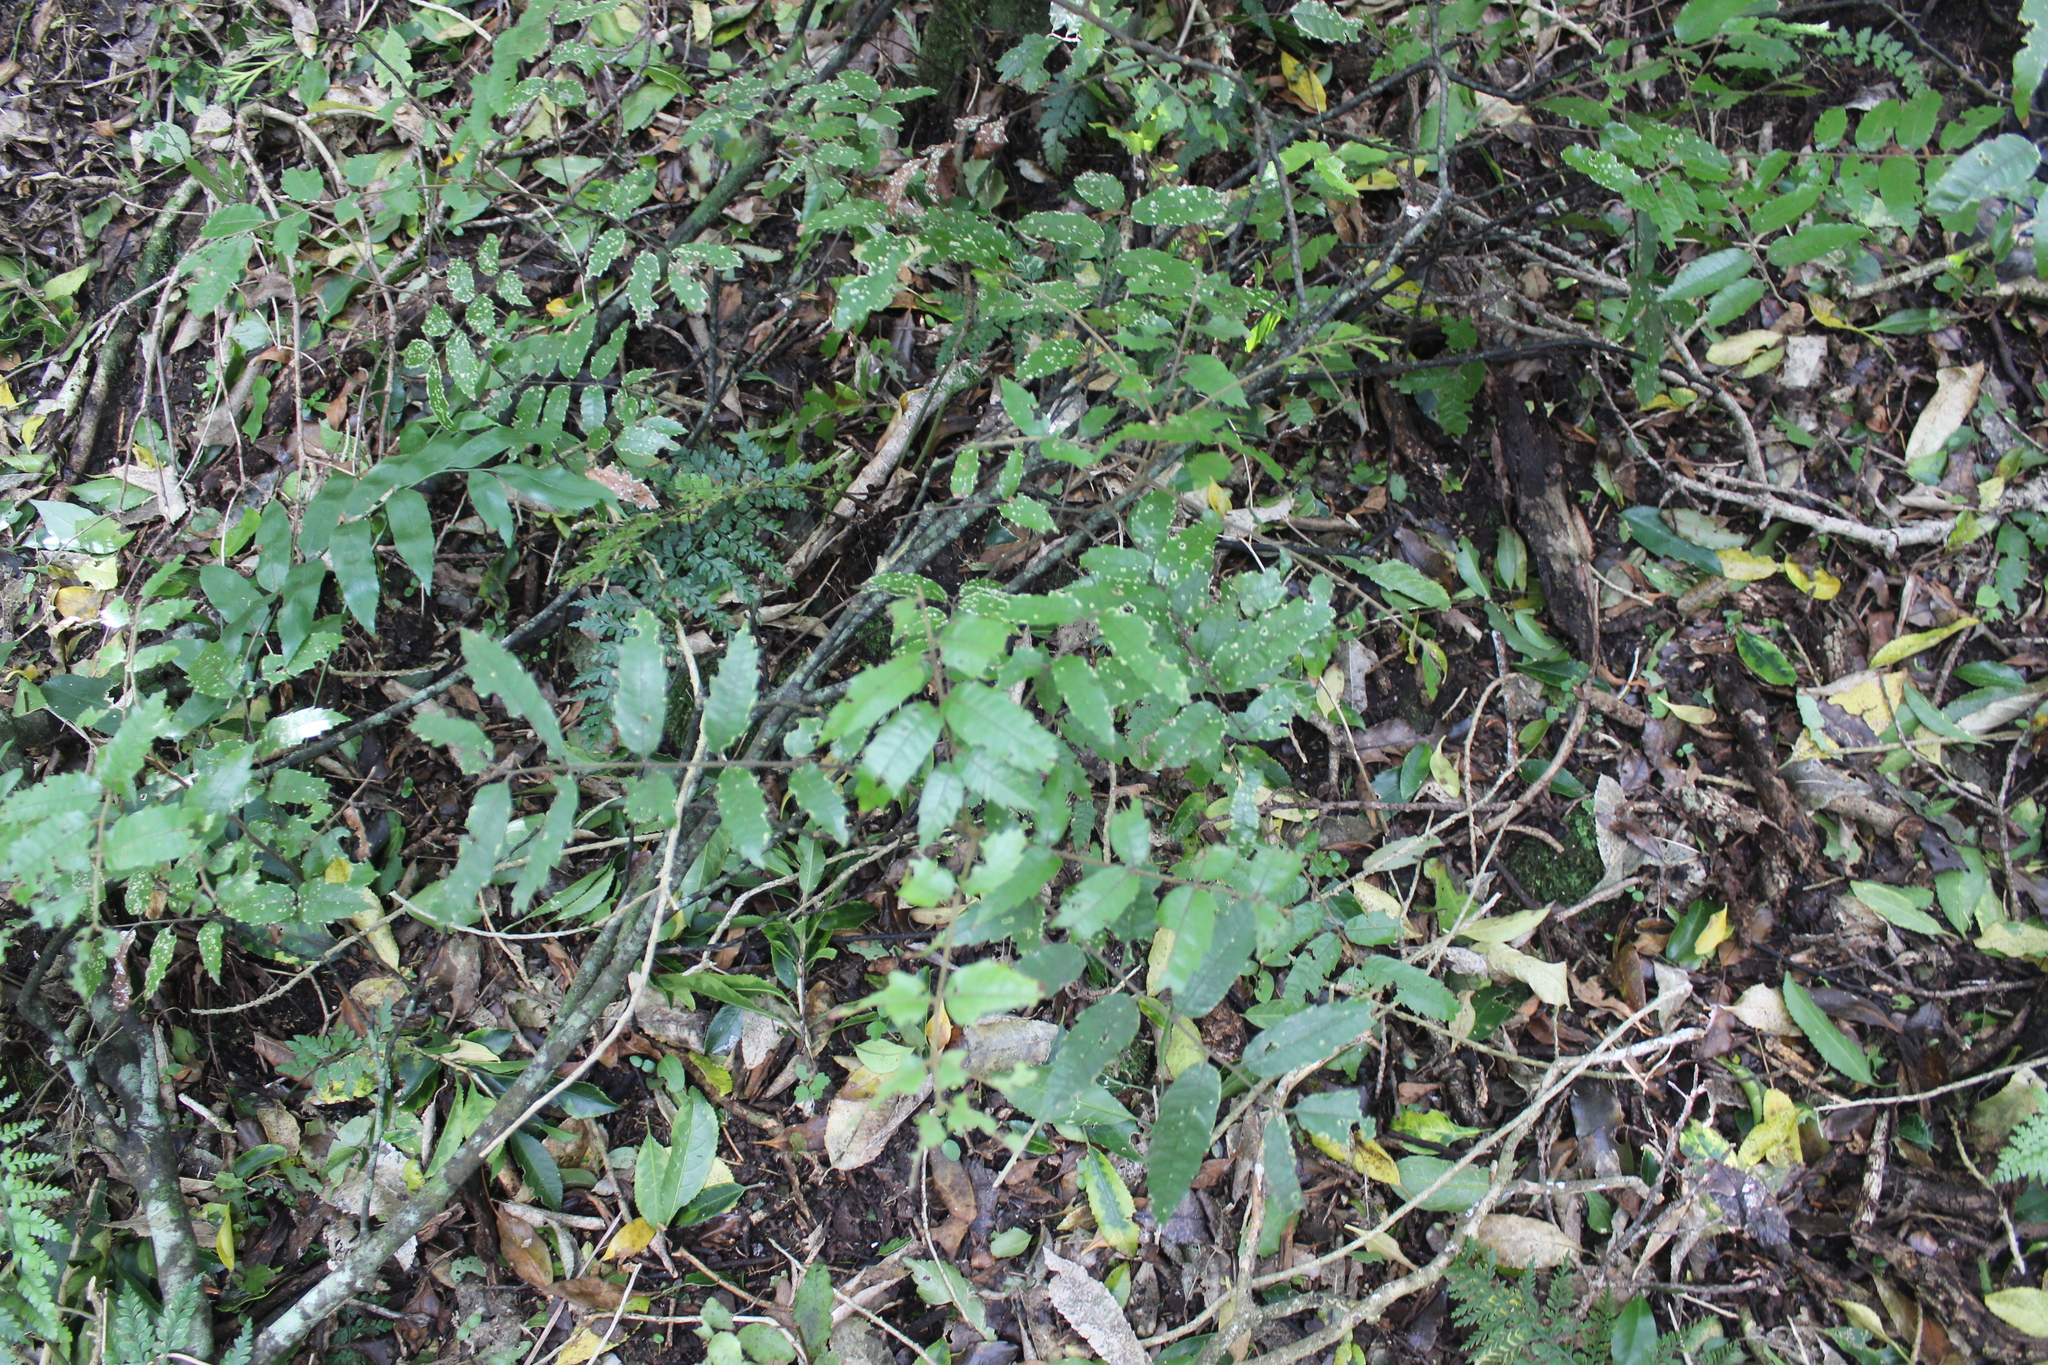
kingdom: Plantae
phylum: Tracheophyta
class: Magnoliopsida
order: Sapindales
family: Sapindaceae
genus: Alectryon
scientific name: Alectryon excelsus
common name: Three kings titoki
